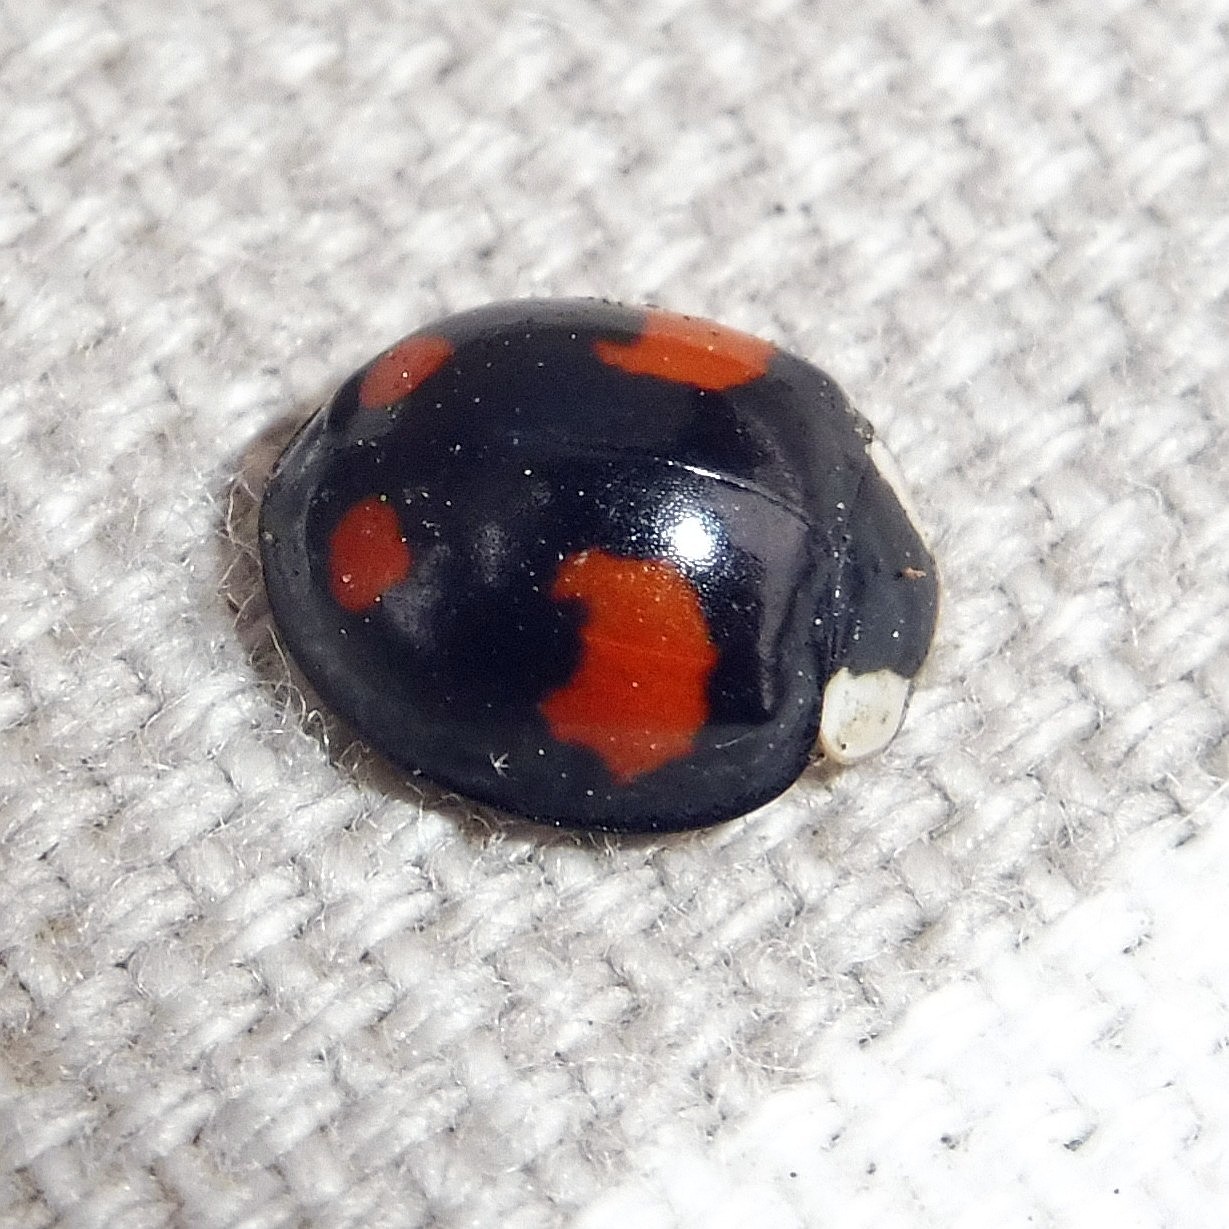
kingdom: Animalia
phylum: Arthropoda
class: Insecta
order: Coleoptera
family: Coccinellidae
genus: Harmonia
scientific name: Harmonia axyridis
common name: Harlequin ladybird
